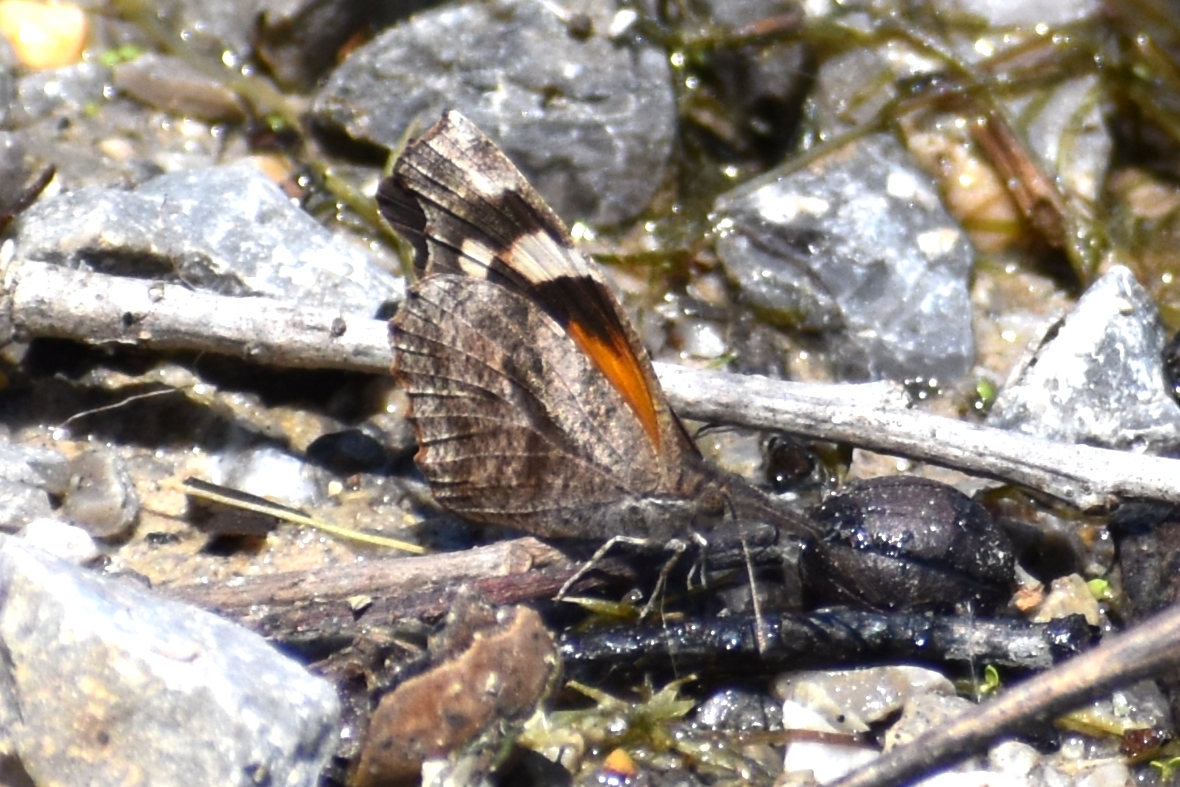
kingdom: Animalia
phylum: Arthropoda
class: Insecta
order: Lepidoptera
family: Nymphalidae
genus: Libytheana
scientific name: Libytheana carinenta
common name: American snout
